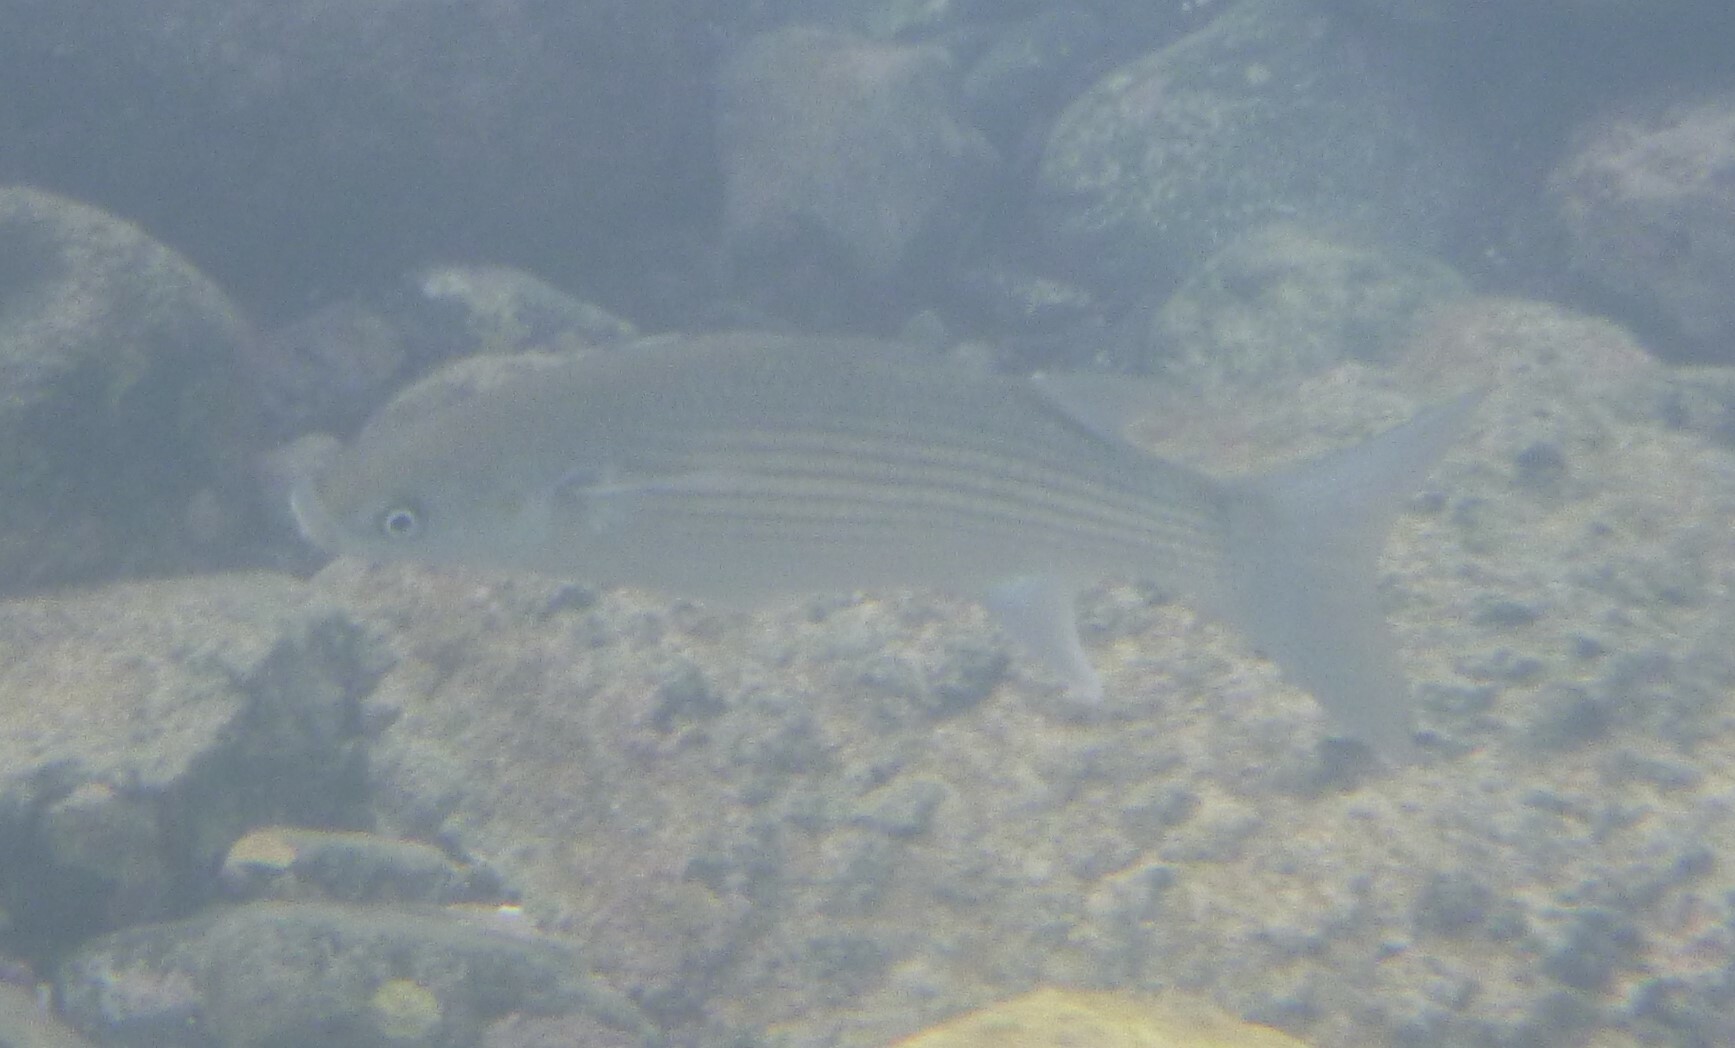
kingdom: Animalia
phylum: Chordata
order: Mugiliformes
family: Mugilidae
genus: Chelon
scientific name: Chelon labrosus
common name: Thick-lipped mullet
